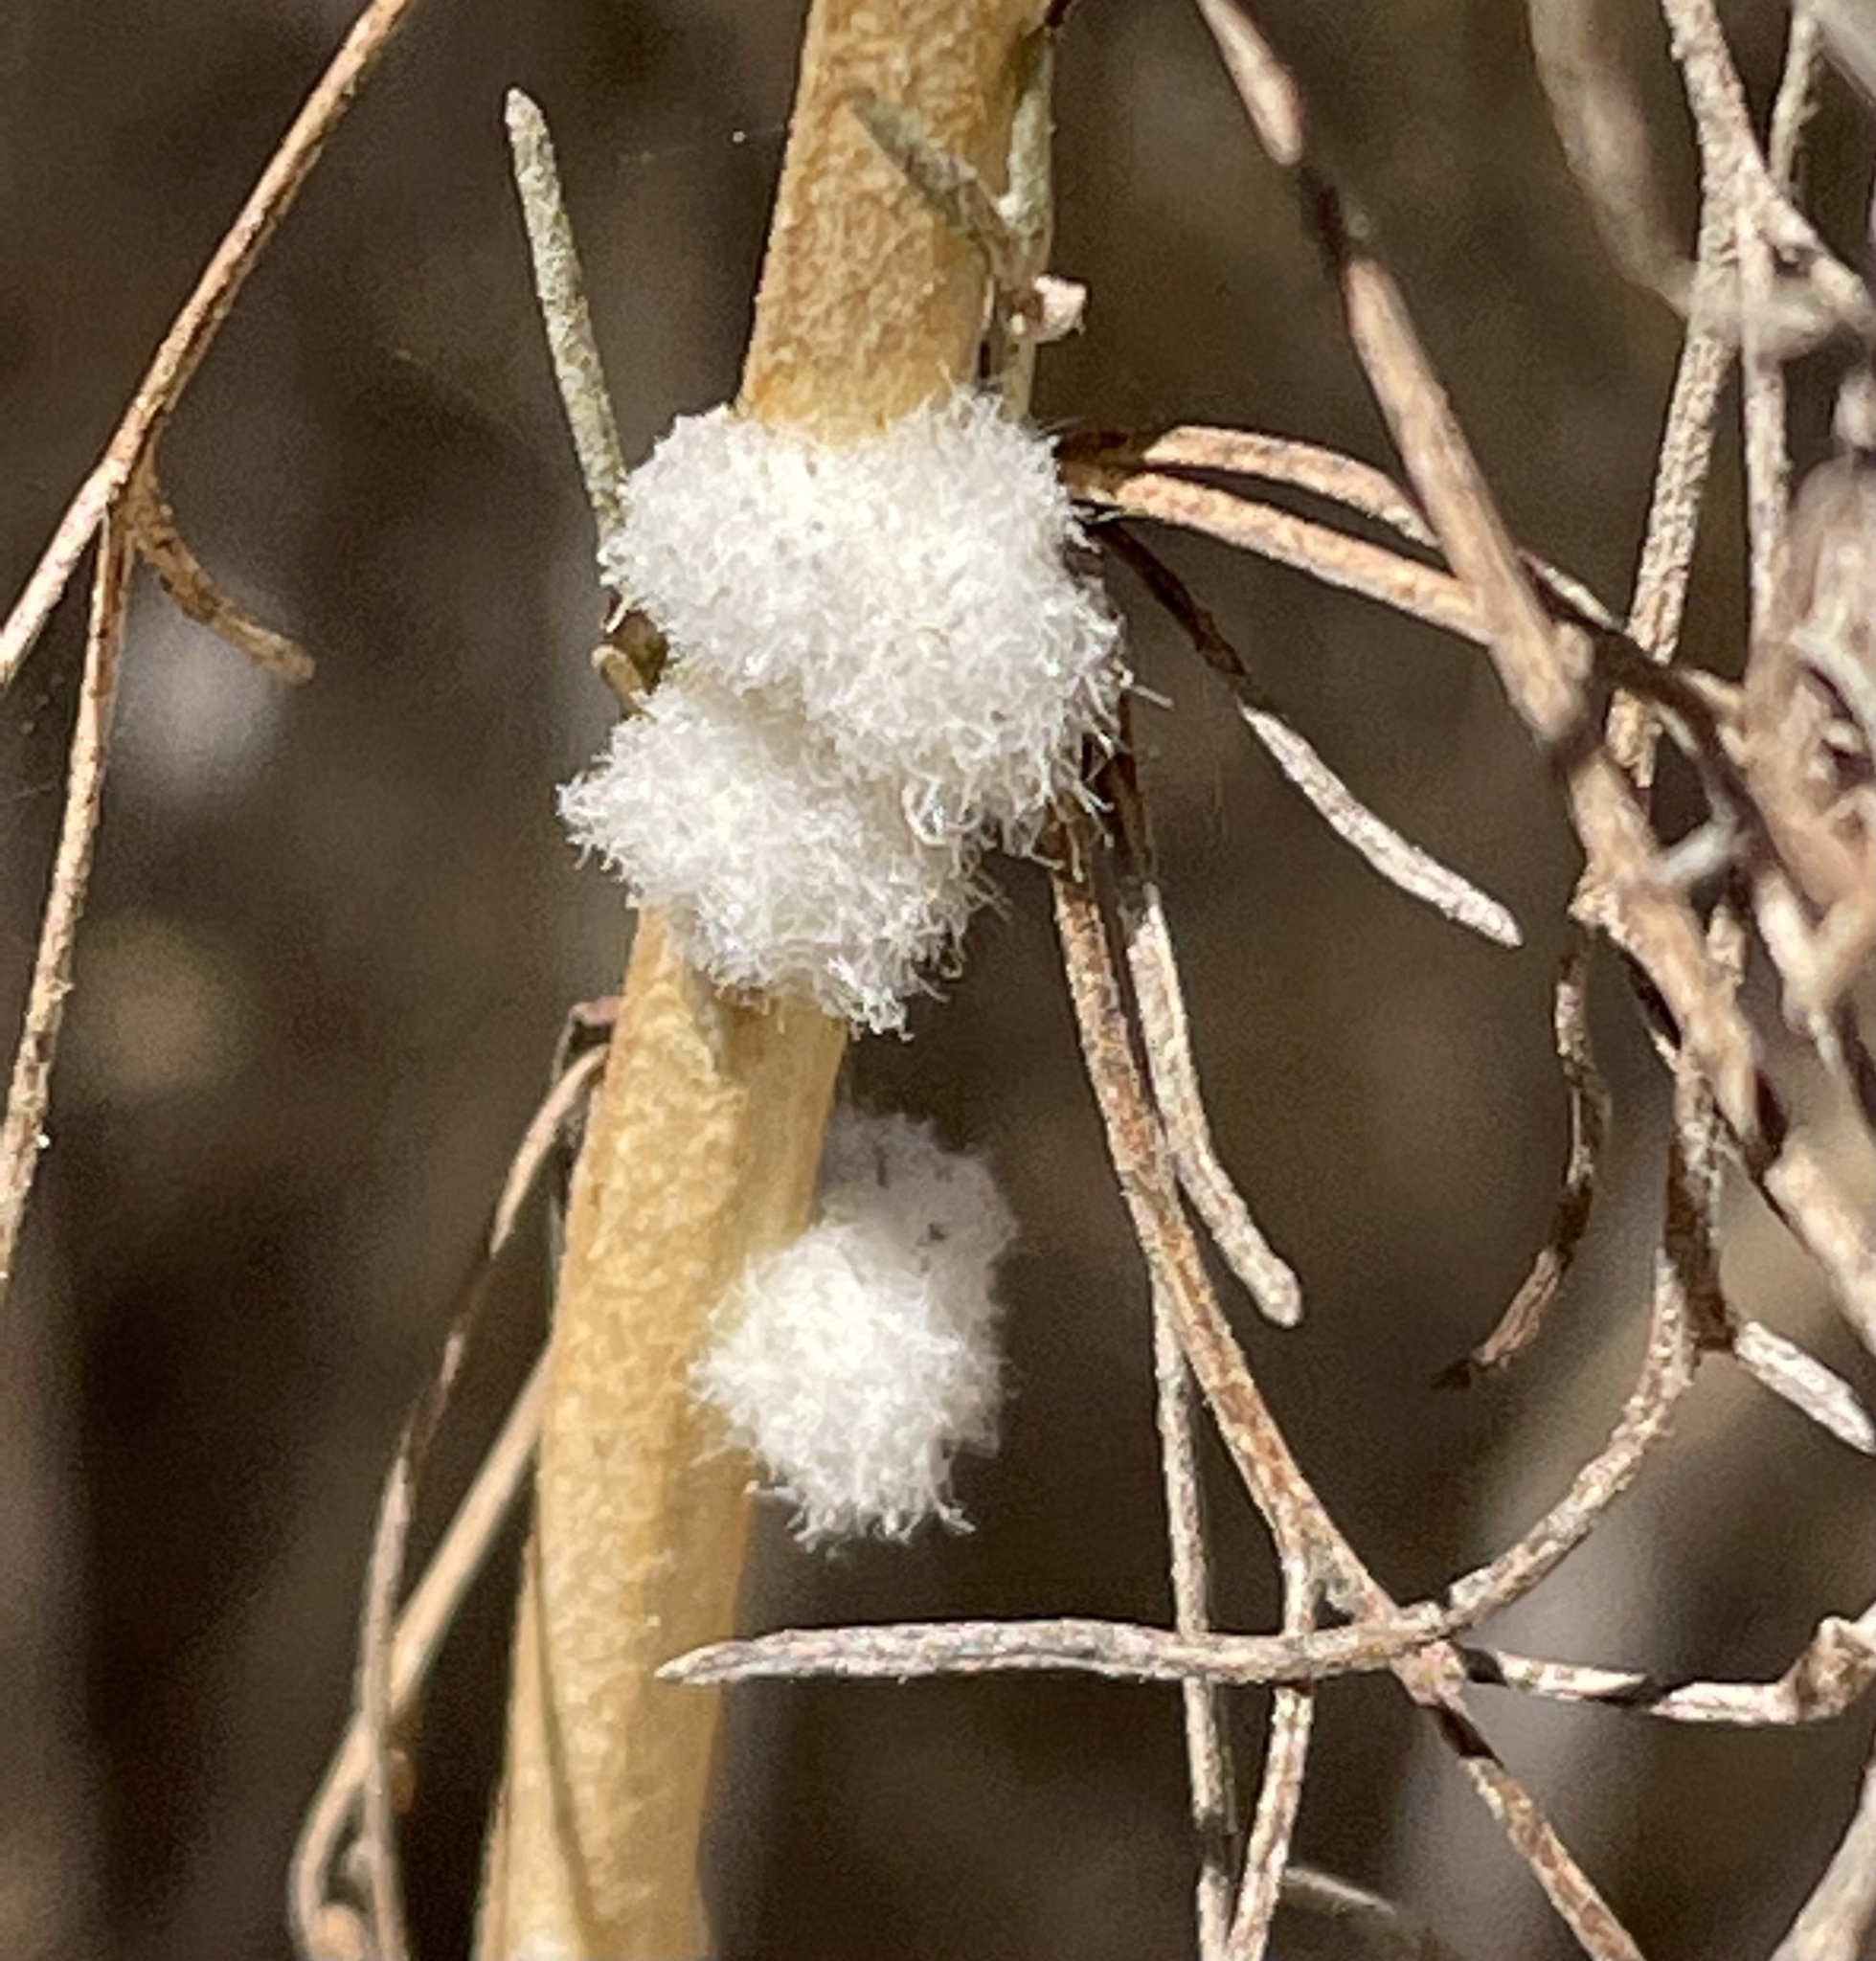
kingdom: Animalia
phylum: Arthropoda
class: Insecta
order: Diptera
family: Cecidomyiidae
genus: Rhopalomyia
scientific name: Rhopalomyia floccosa
